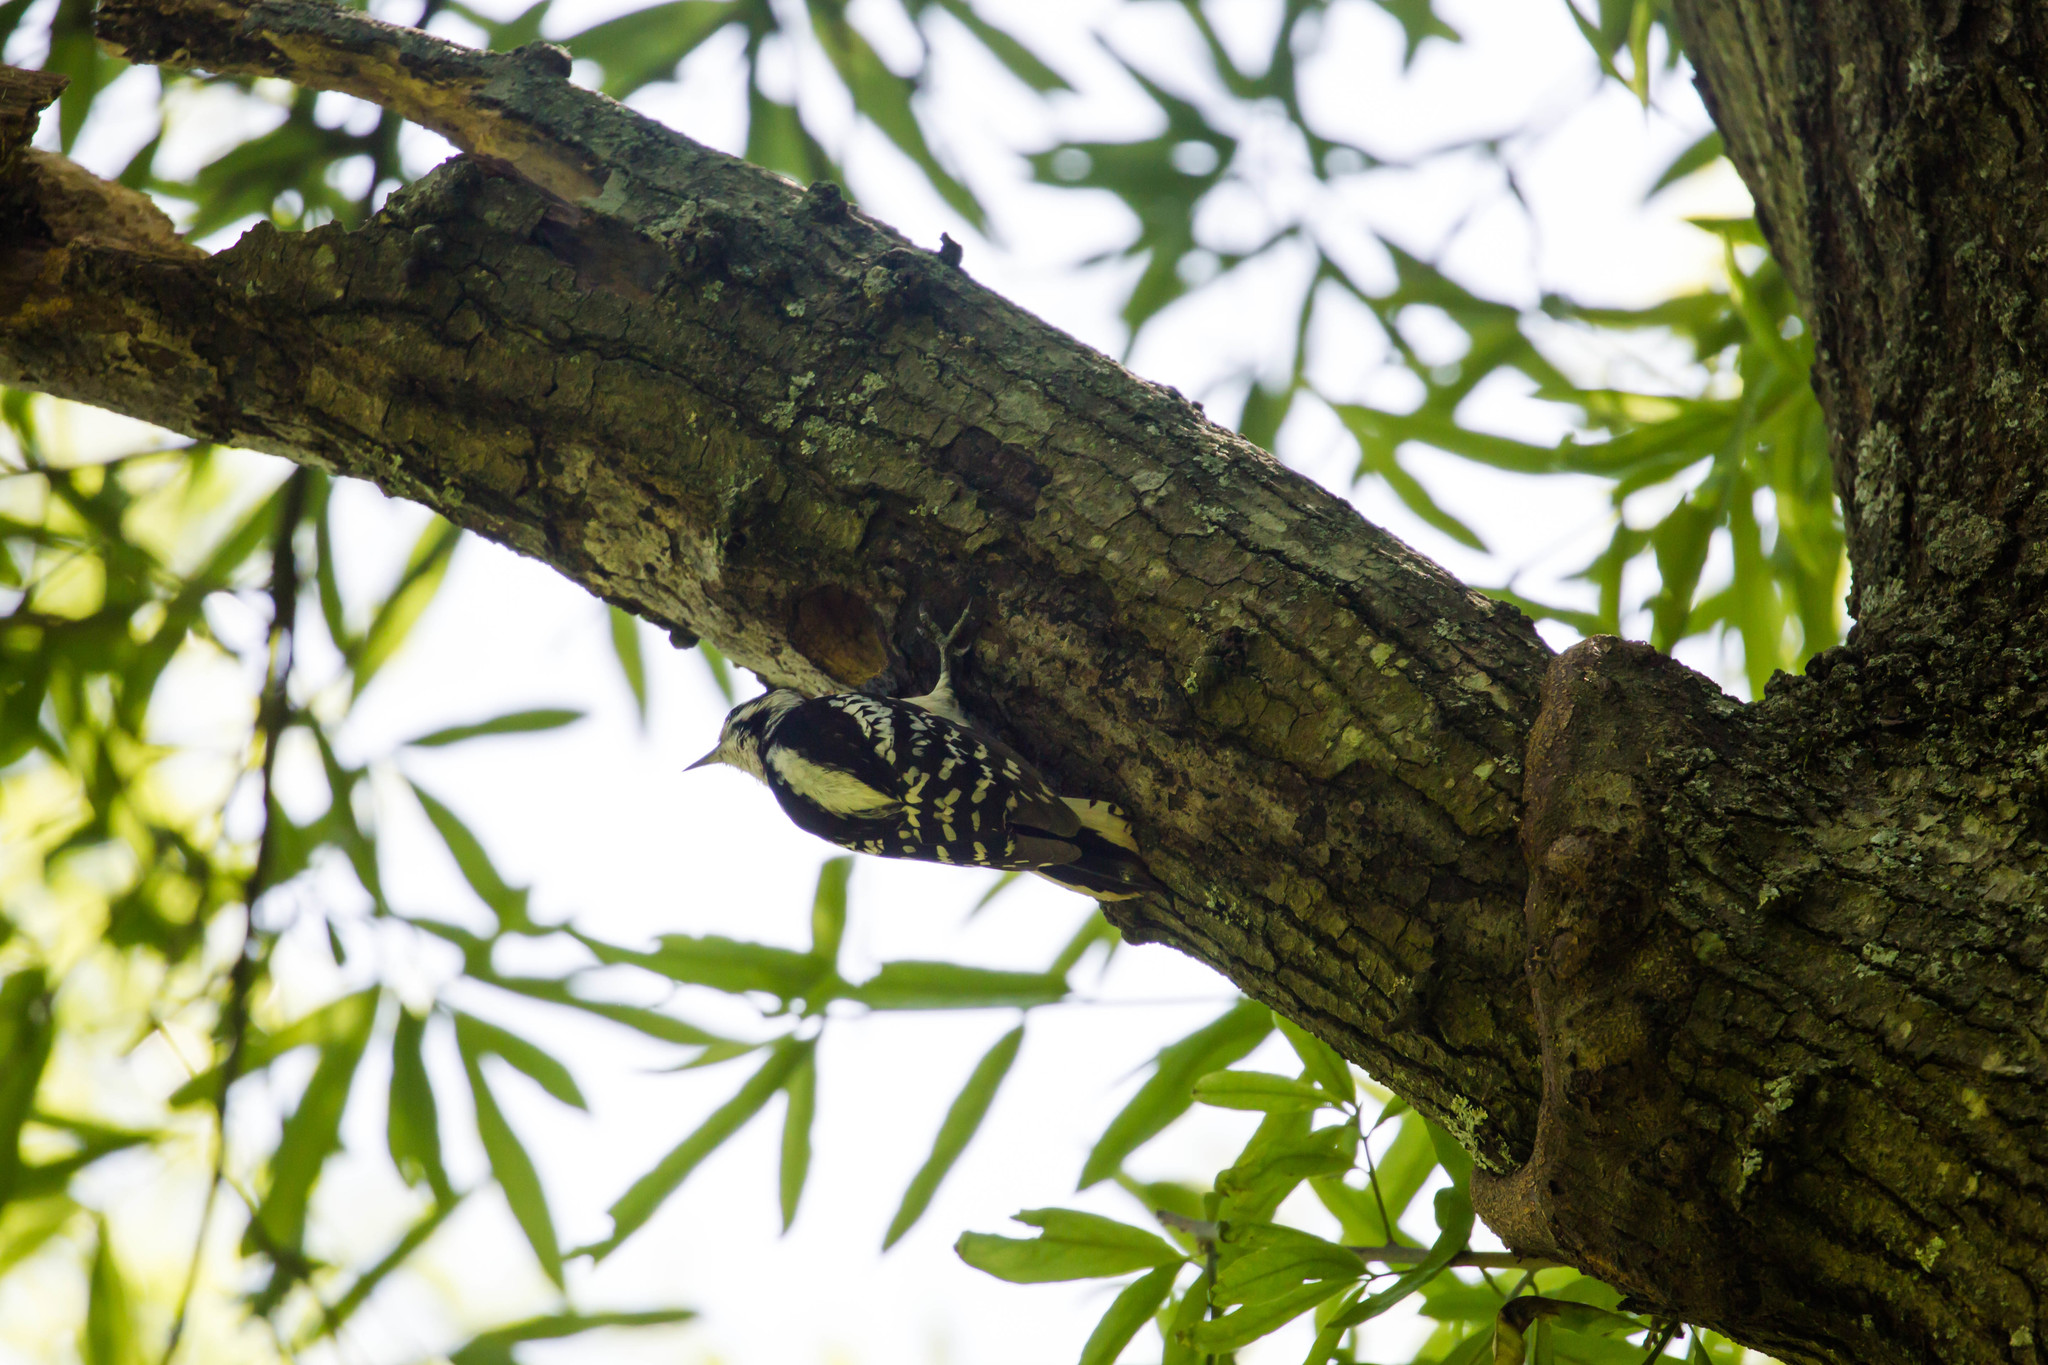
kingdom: Animalia
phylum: Chordata
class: Aves
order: Piciformes
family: Picidae
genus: Dryobates
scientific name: Dryobates pubescens
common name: Downy woodpecker
